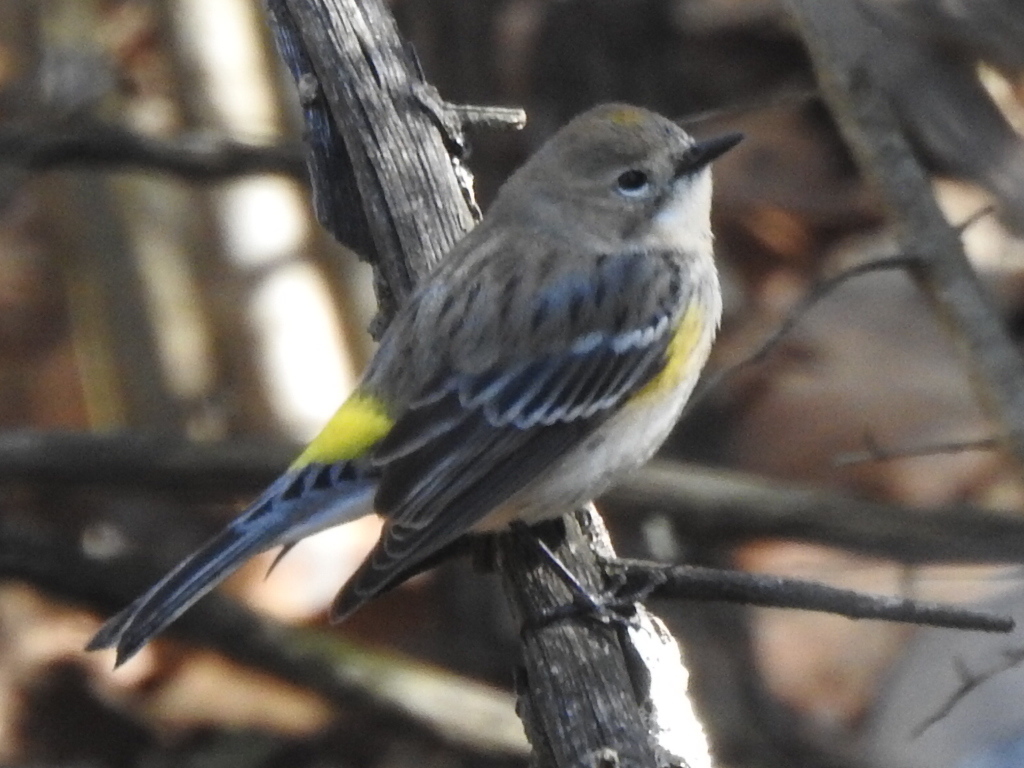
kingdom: Animalia
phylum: Chordata
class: Aves
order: Passeriformes
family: Parulidae
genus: Setophaga
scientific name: Setophaga coronata
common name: Myrtle warbler
